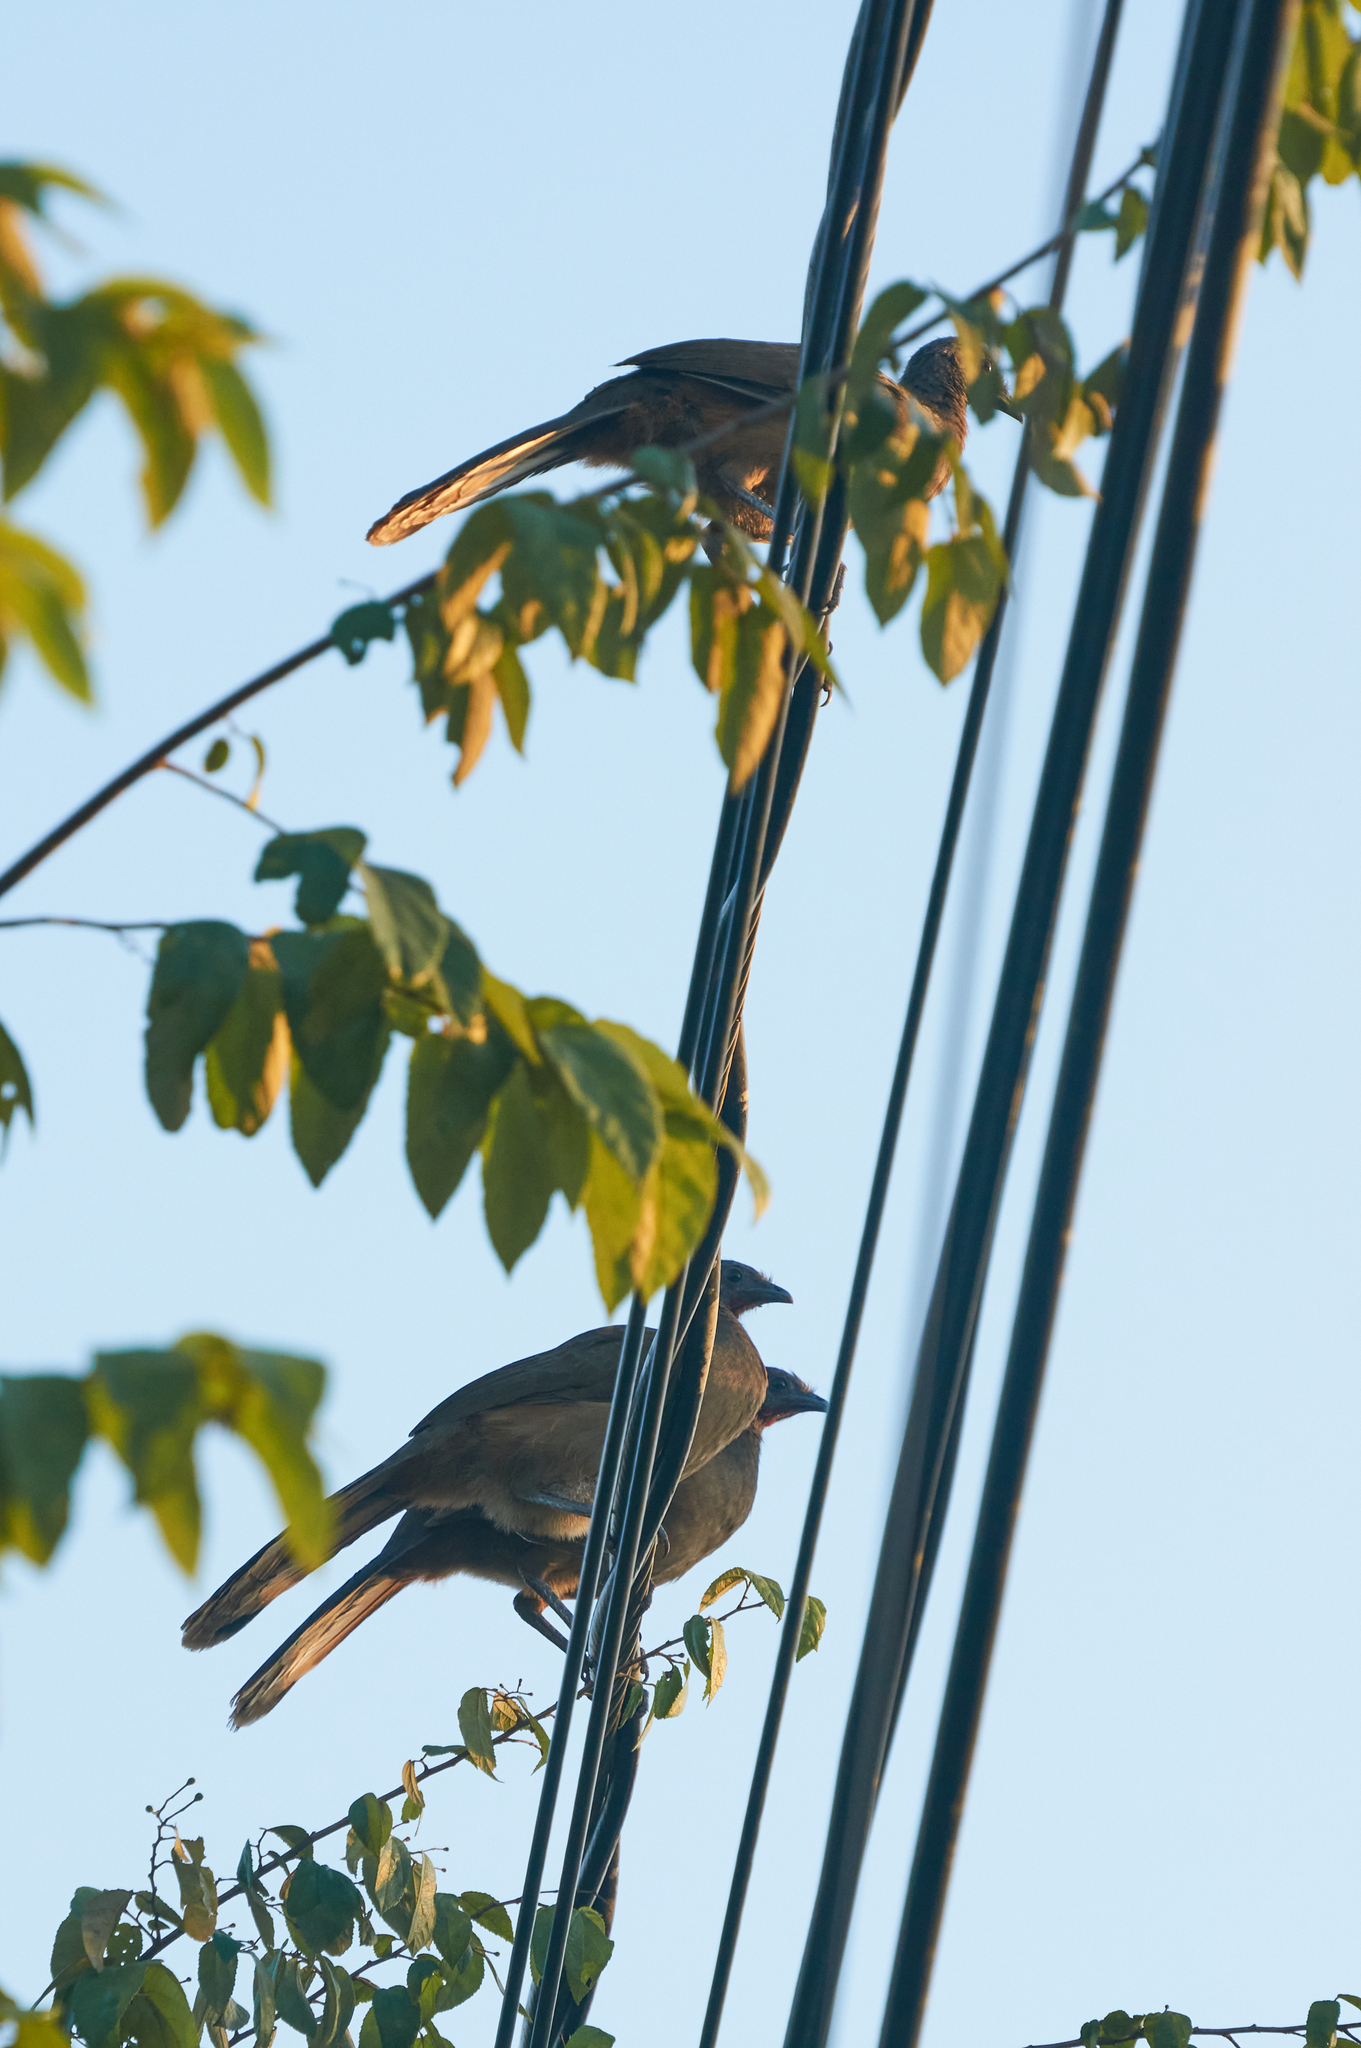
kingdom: Animalia
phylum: Chordata
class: Aves
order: Galliformes
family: Cracidae
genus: Ortalis
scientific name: Ortalis vetula
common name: Plain chachalaca
